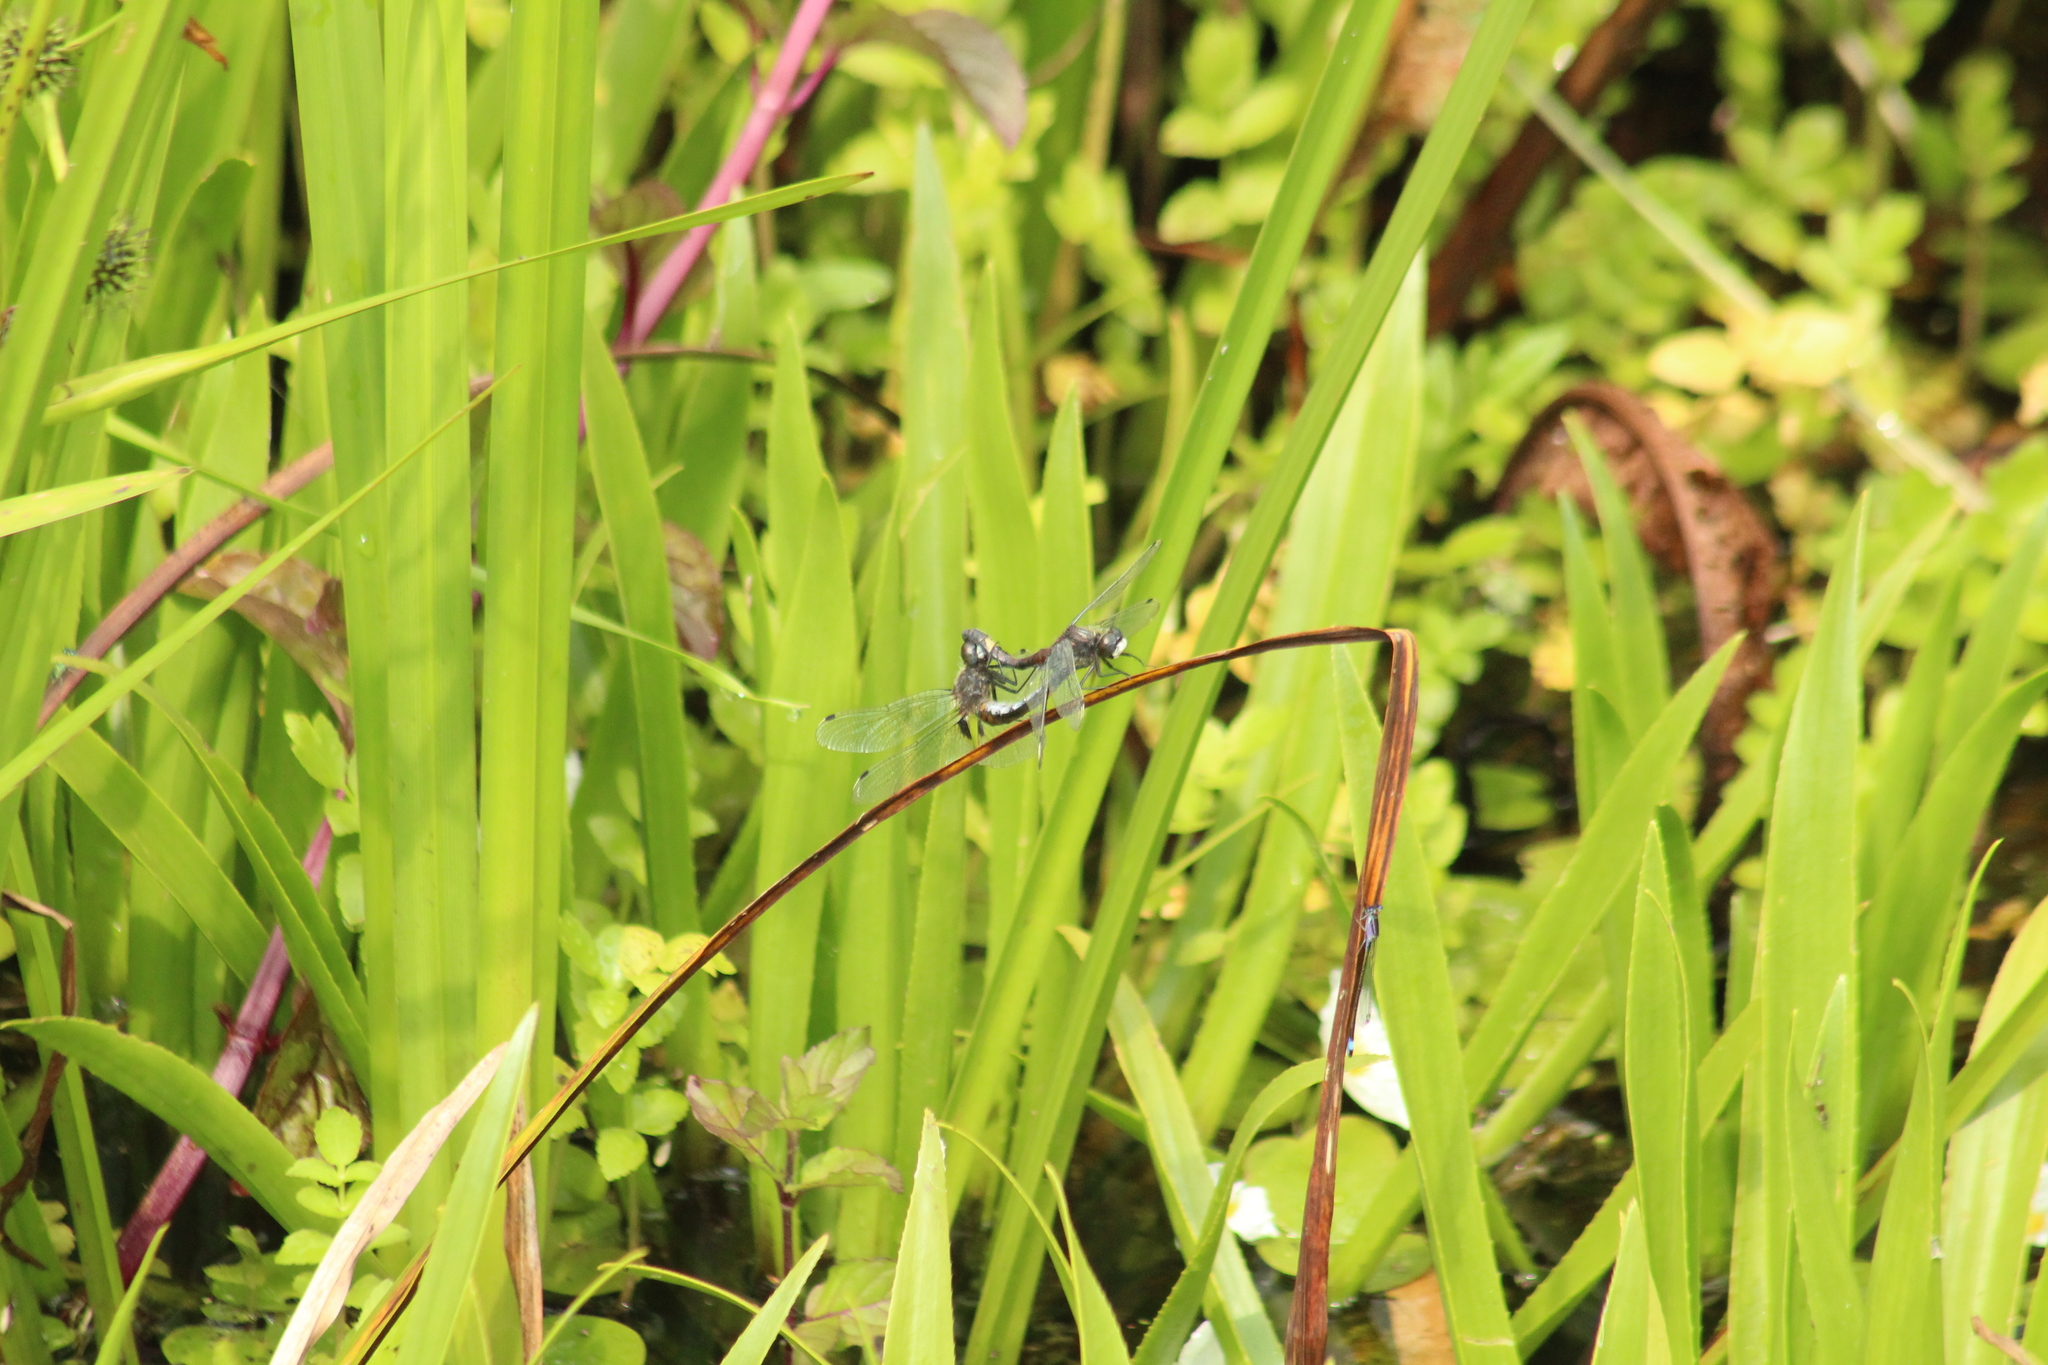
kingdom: Animalia
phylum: Arthropoda
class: Insecta
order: Odonata
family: Libellulidae
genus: Leucorrhinia
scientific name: Leucorrhinia pectoralis
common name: Yellow-spotted whiteface
